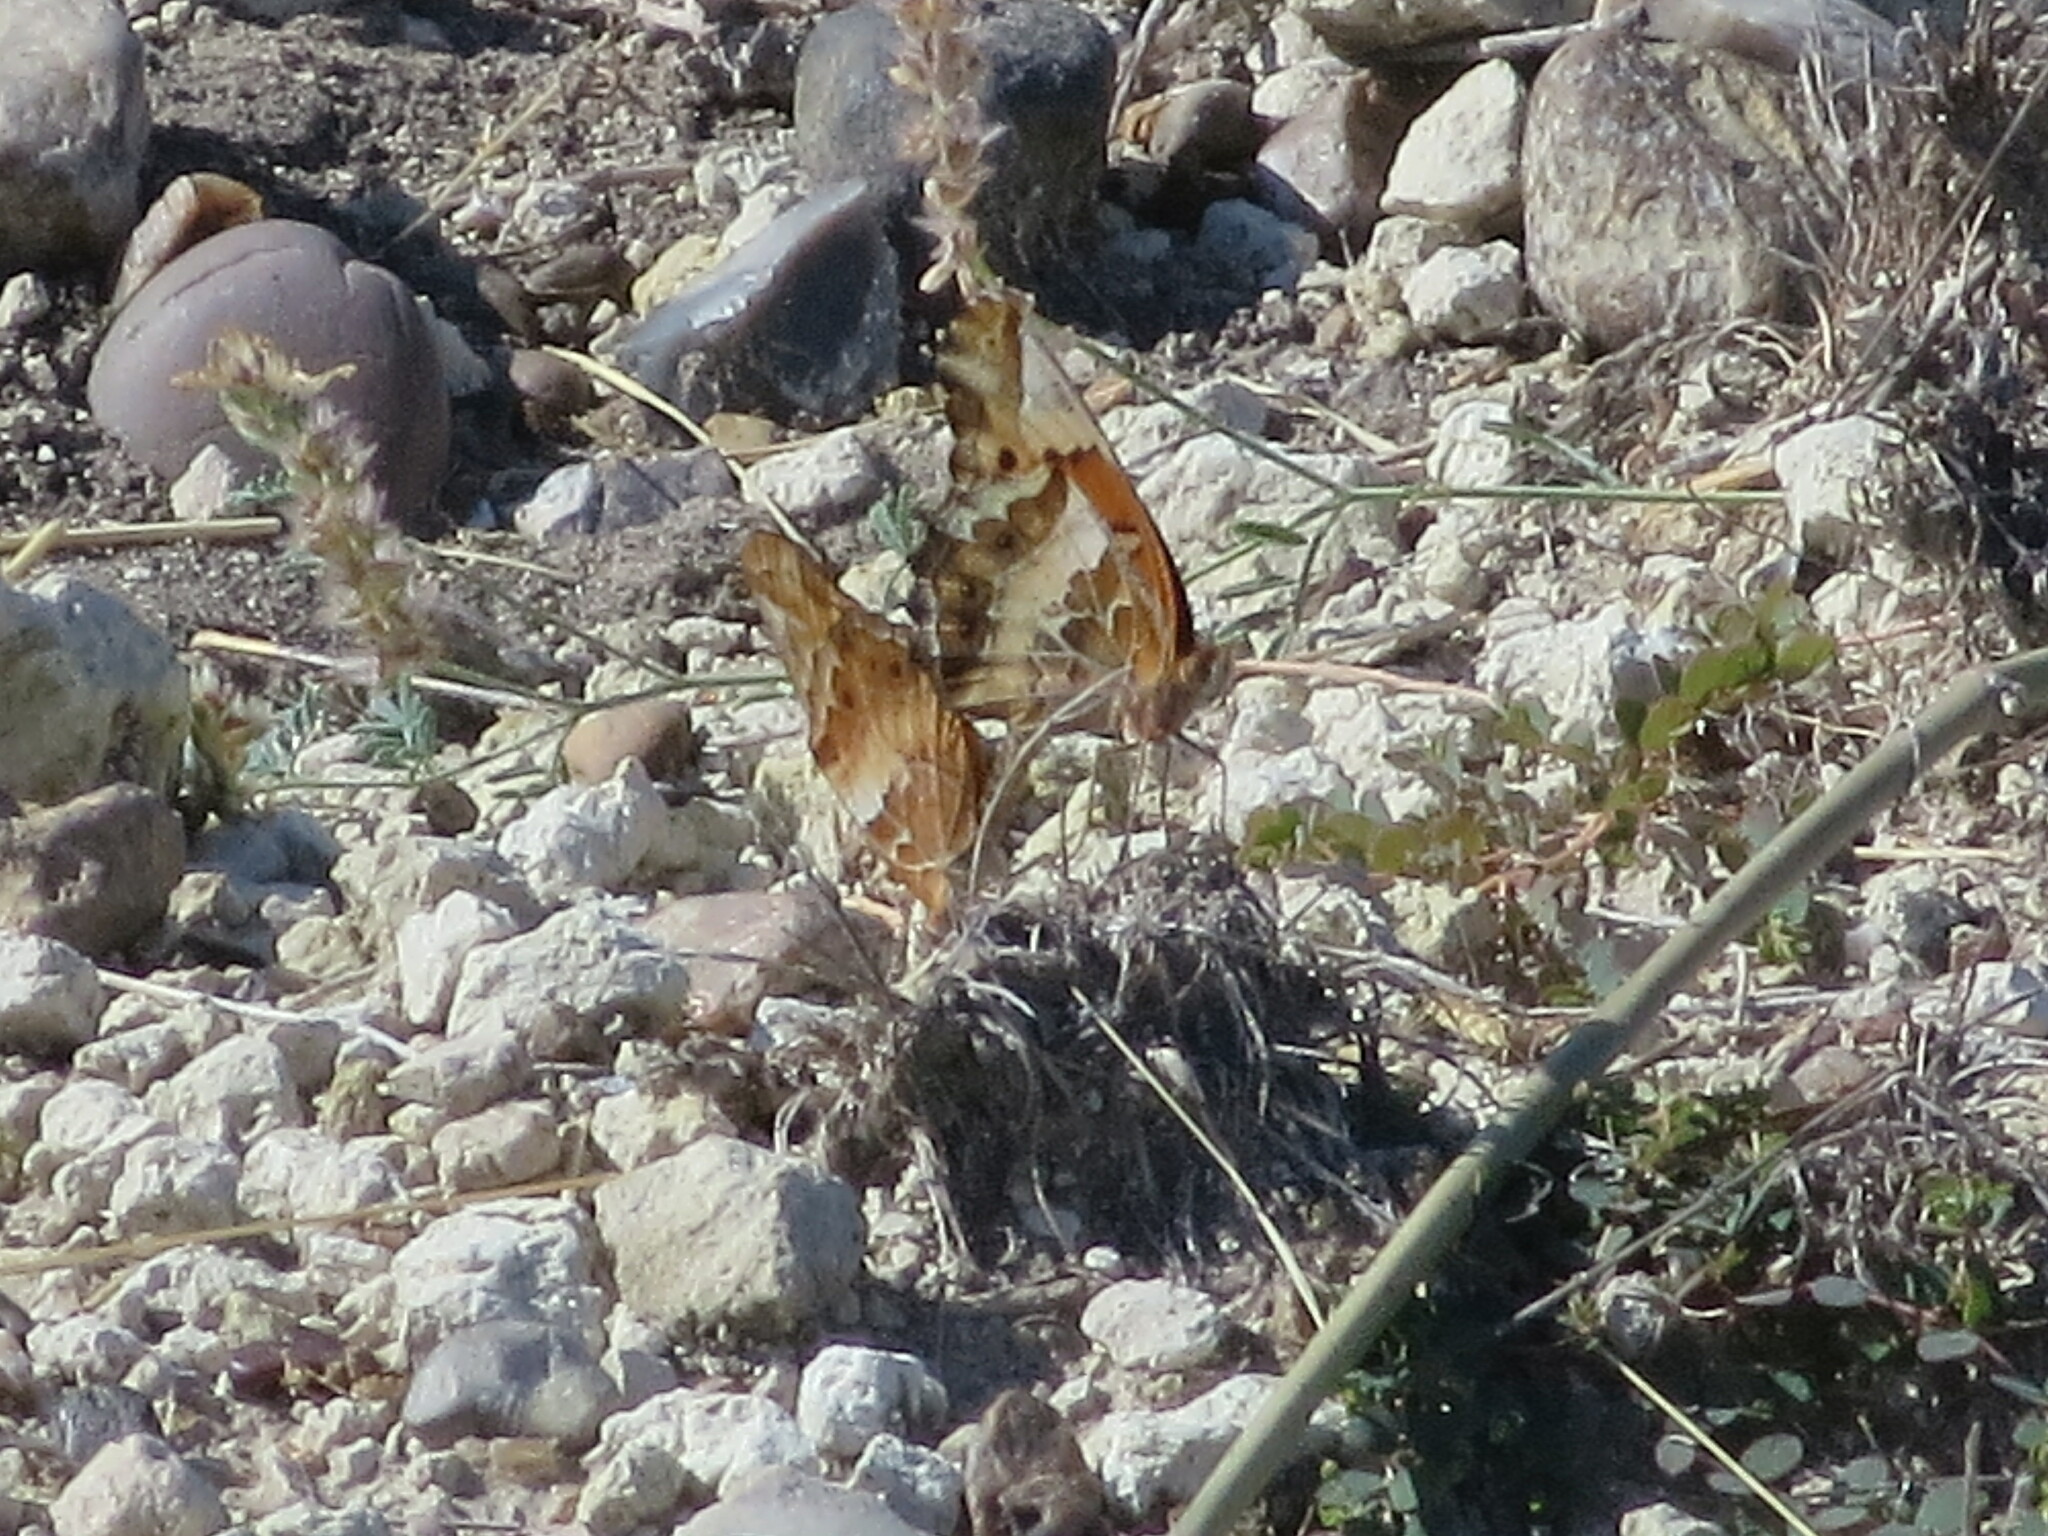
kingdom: Animalia
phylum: Arthropoda
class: Insecta
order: Lepidoptera
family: Nymphalidae
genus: Euptoieta
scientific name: Euptoieta claudia
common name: Variegated fritillary
